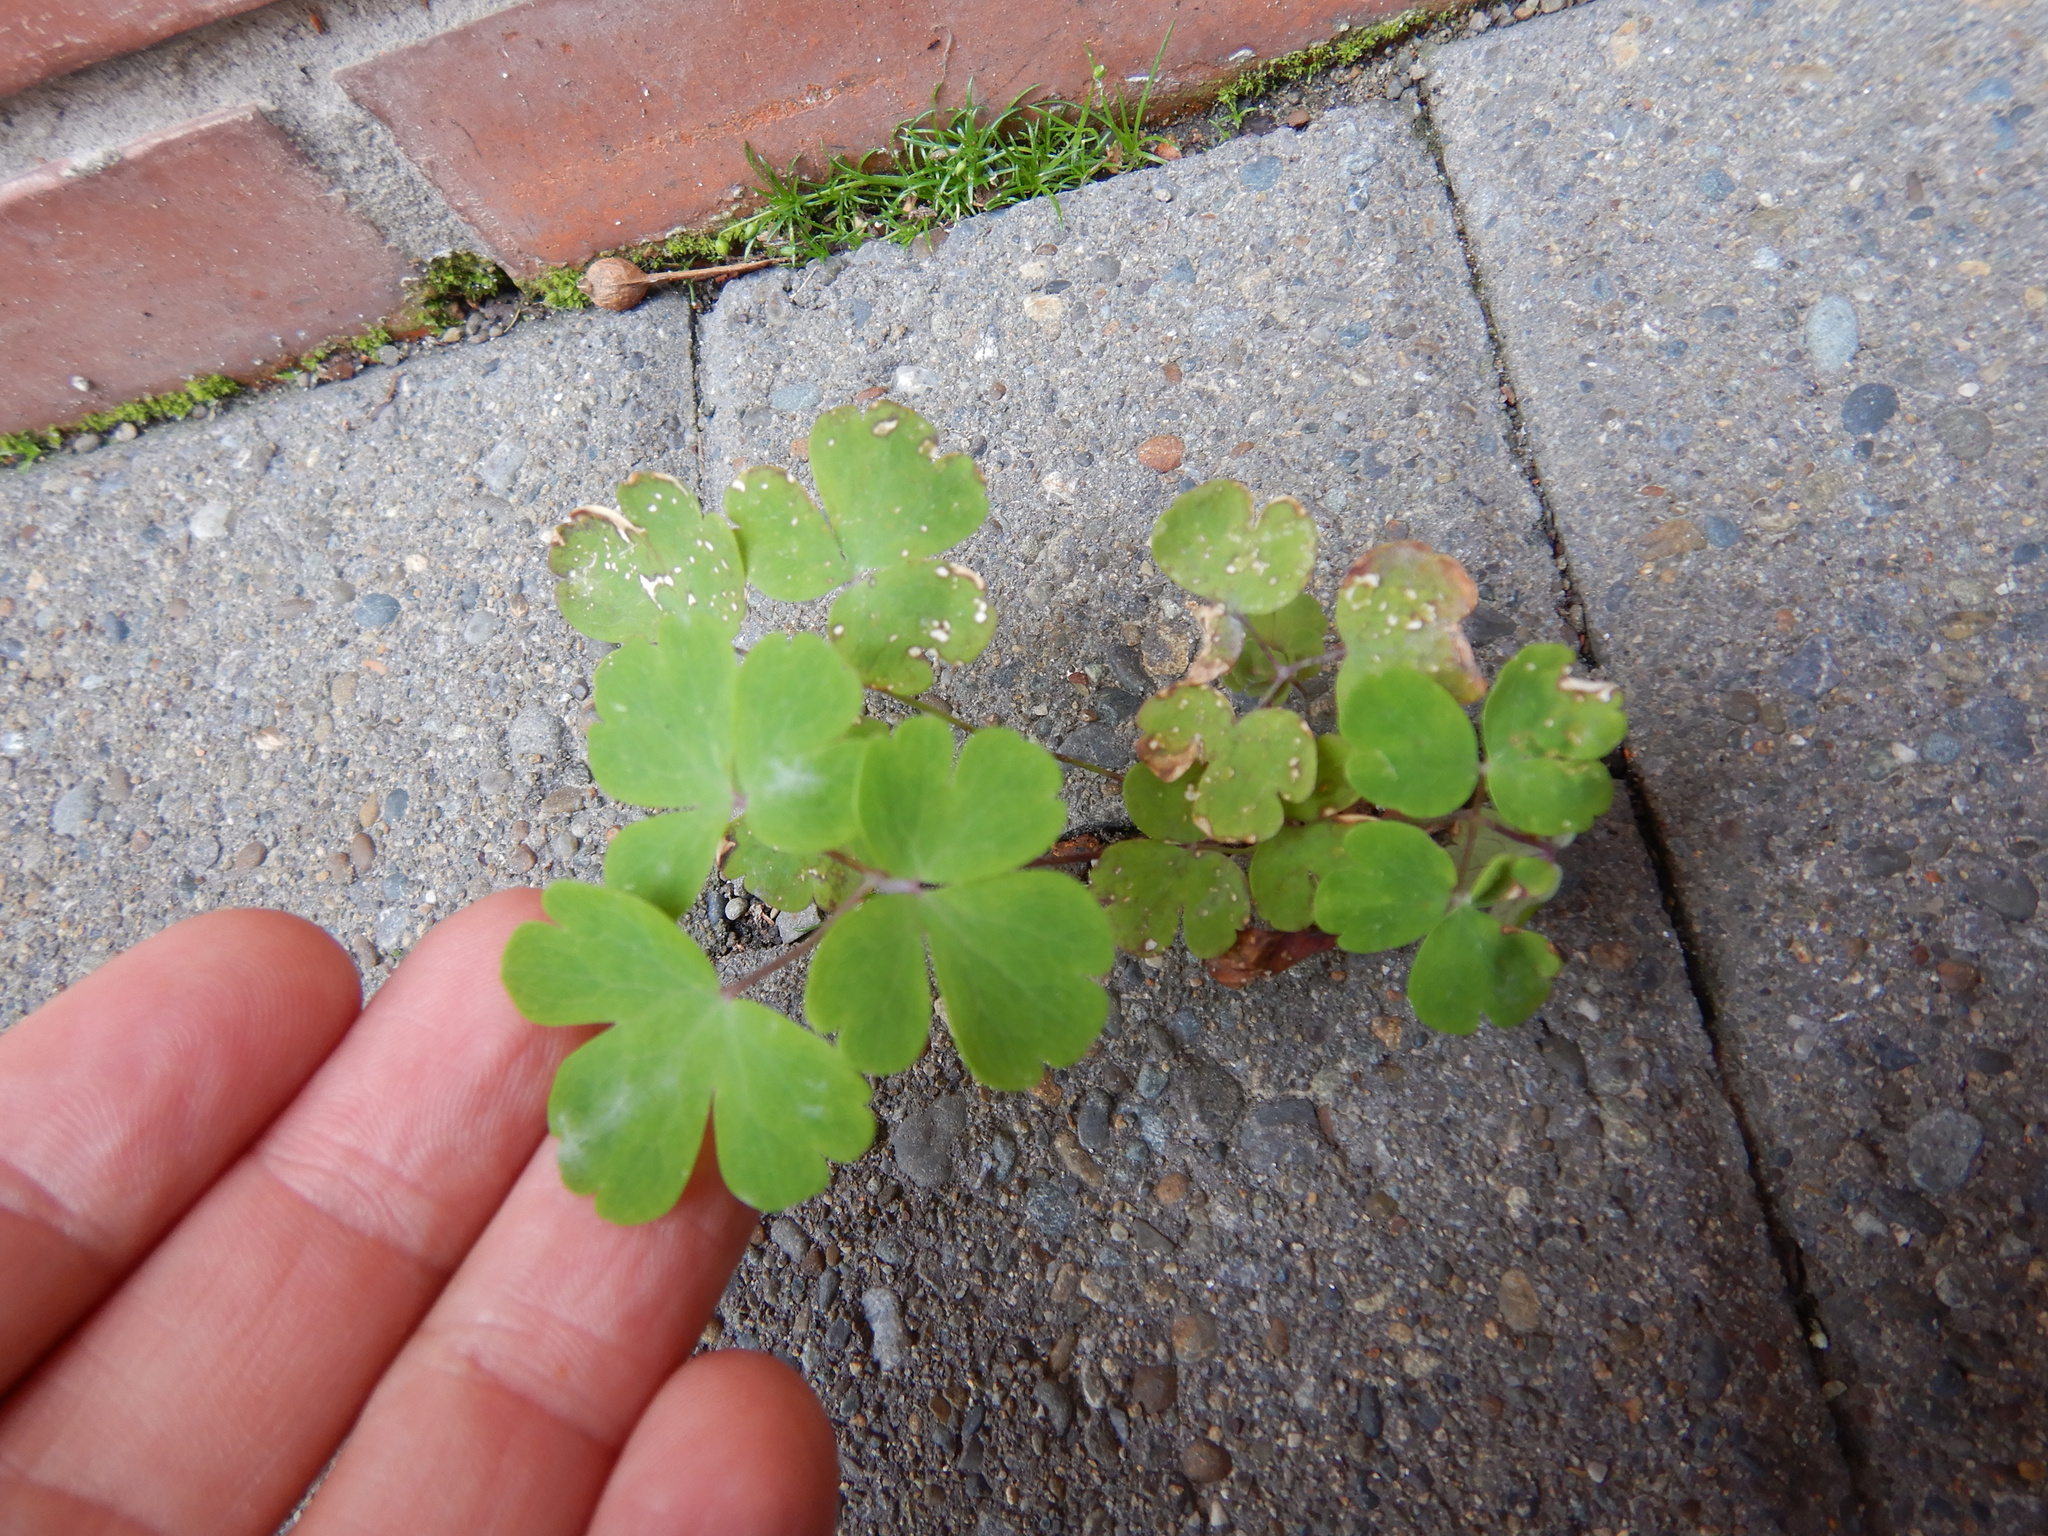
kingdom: Plantae
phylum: Tracheophyta
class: Magnoliopsida
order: Ranunculales
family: Ranunculaceae
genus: Aquilegia
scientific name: Aquilegia vulgaris
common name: Columbine
